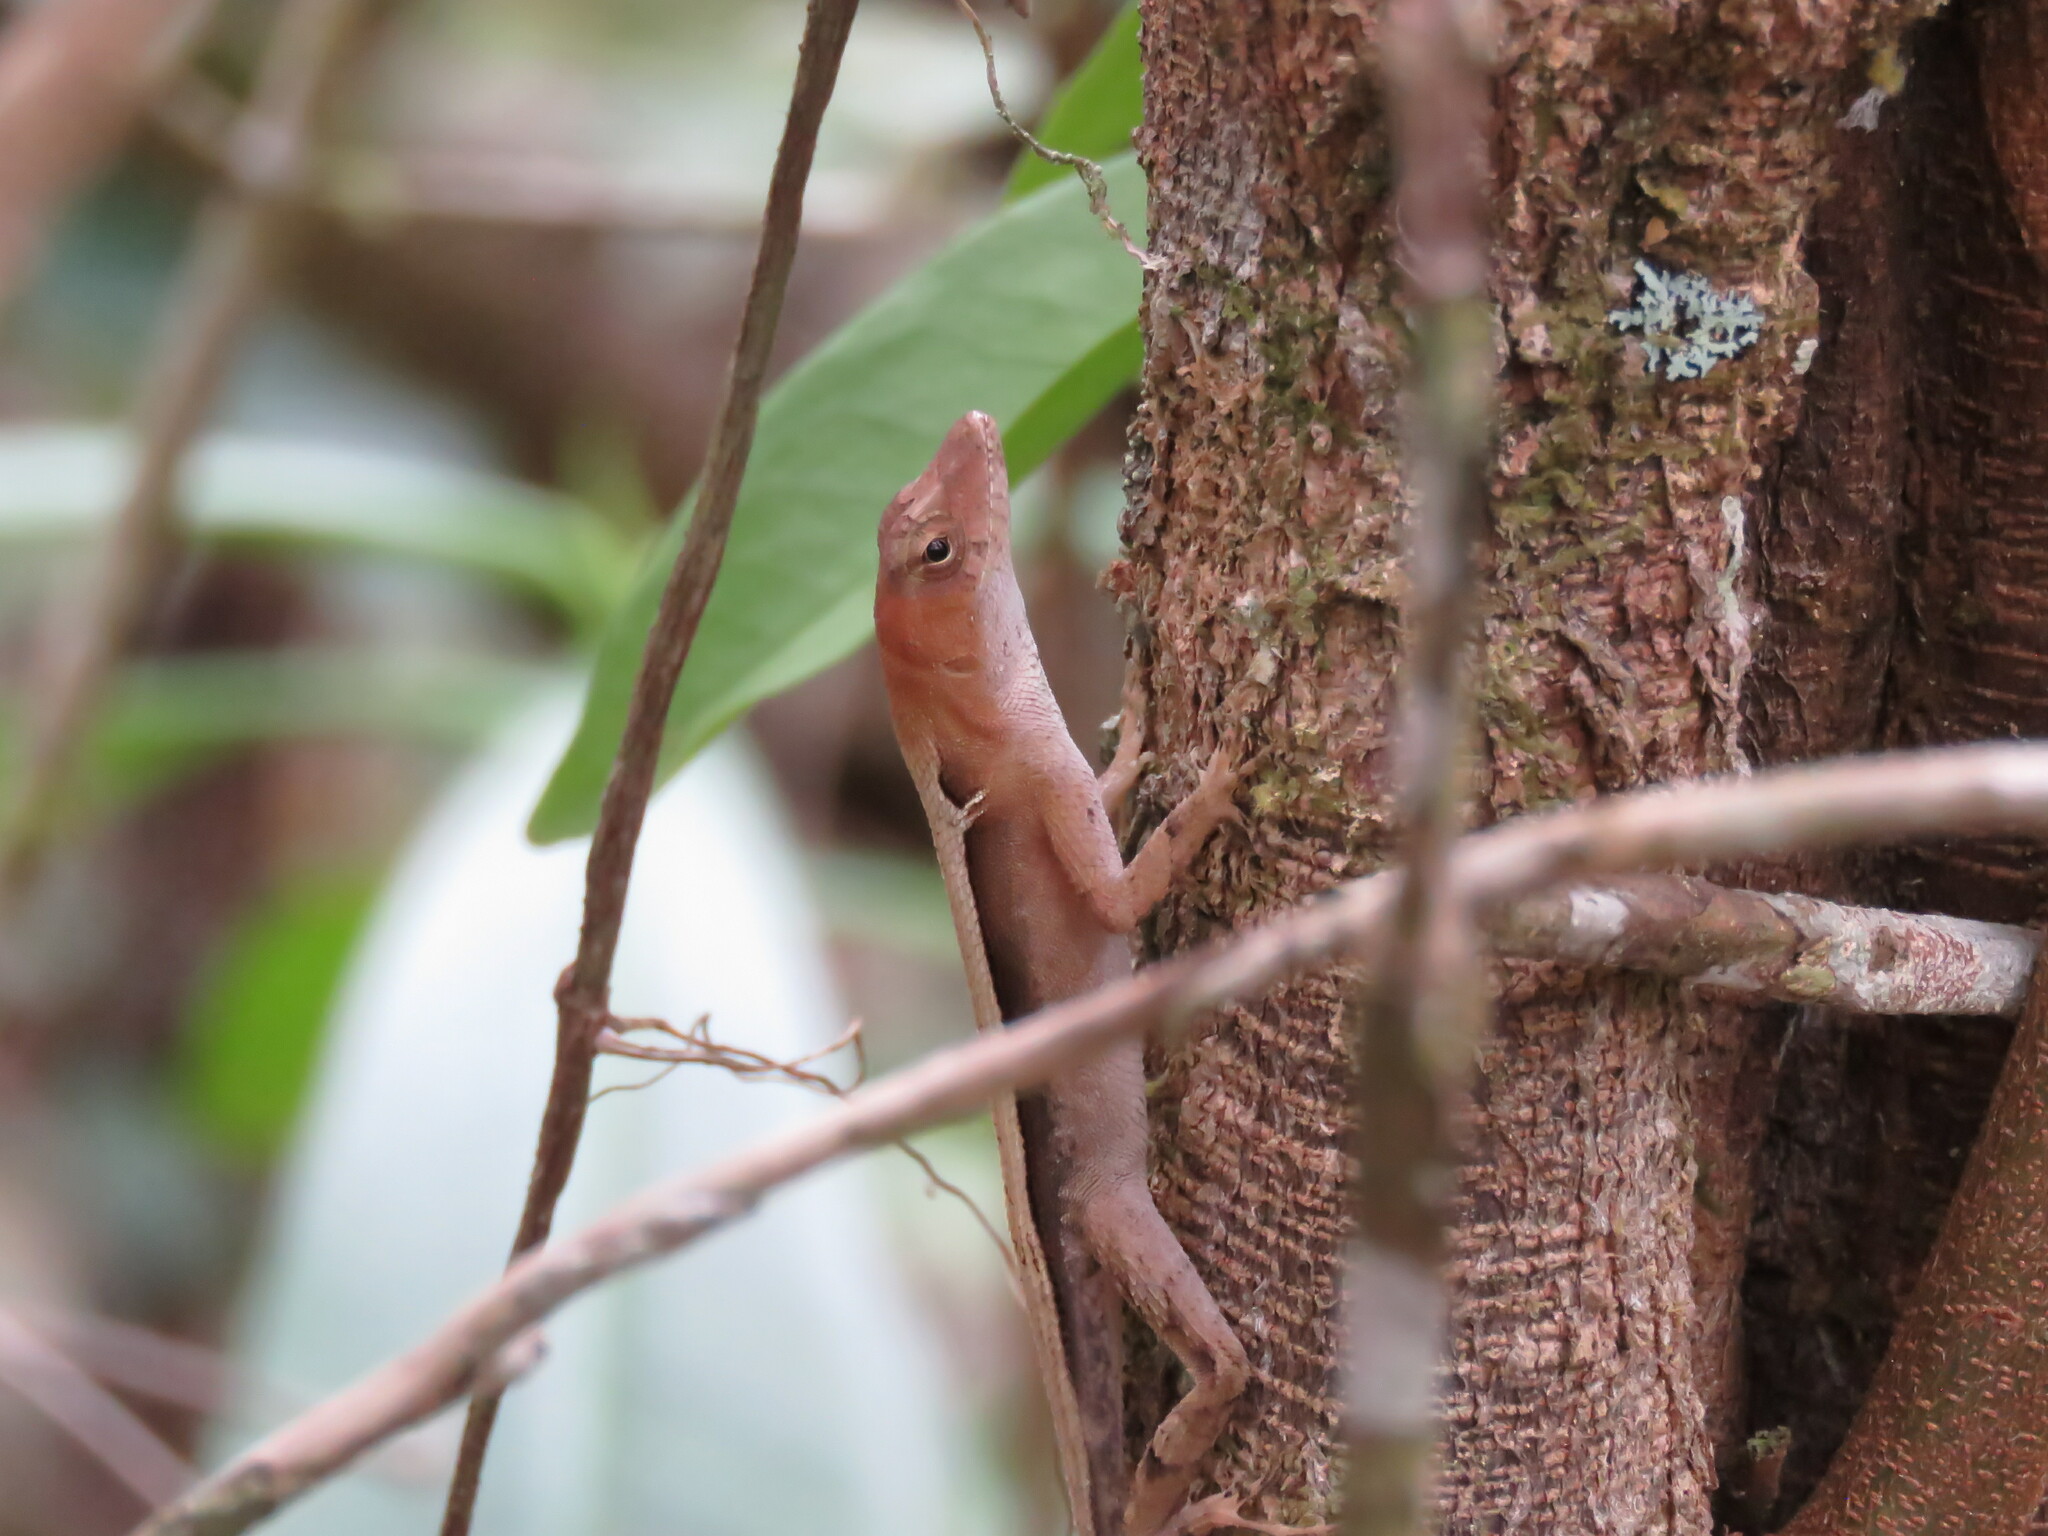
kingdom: Animalia
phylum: Chordata
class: Squamata
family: Dactyloidae
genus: Anolis
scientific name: Anolis tropidonotus
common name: Greater scaly anole
